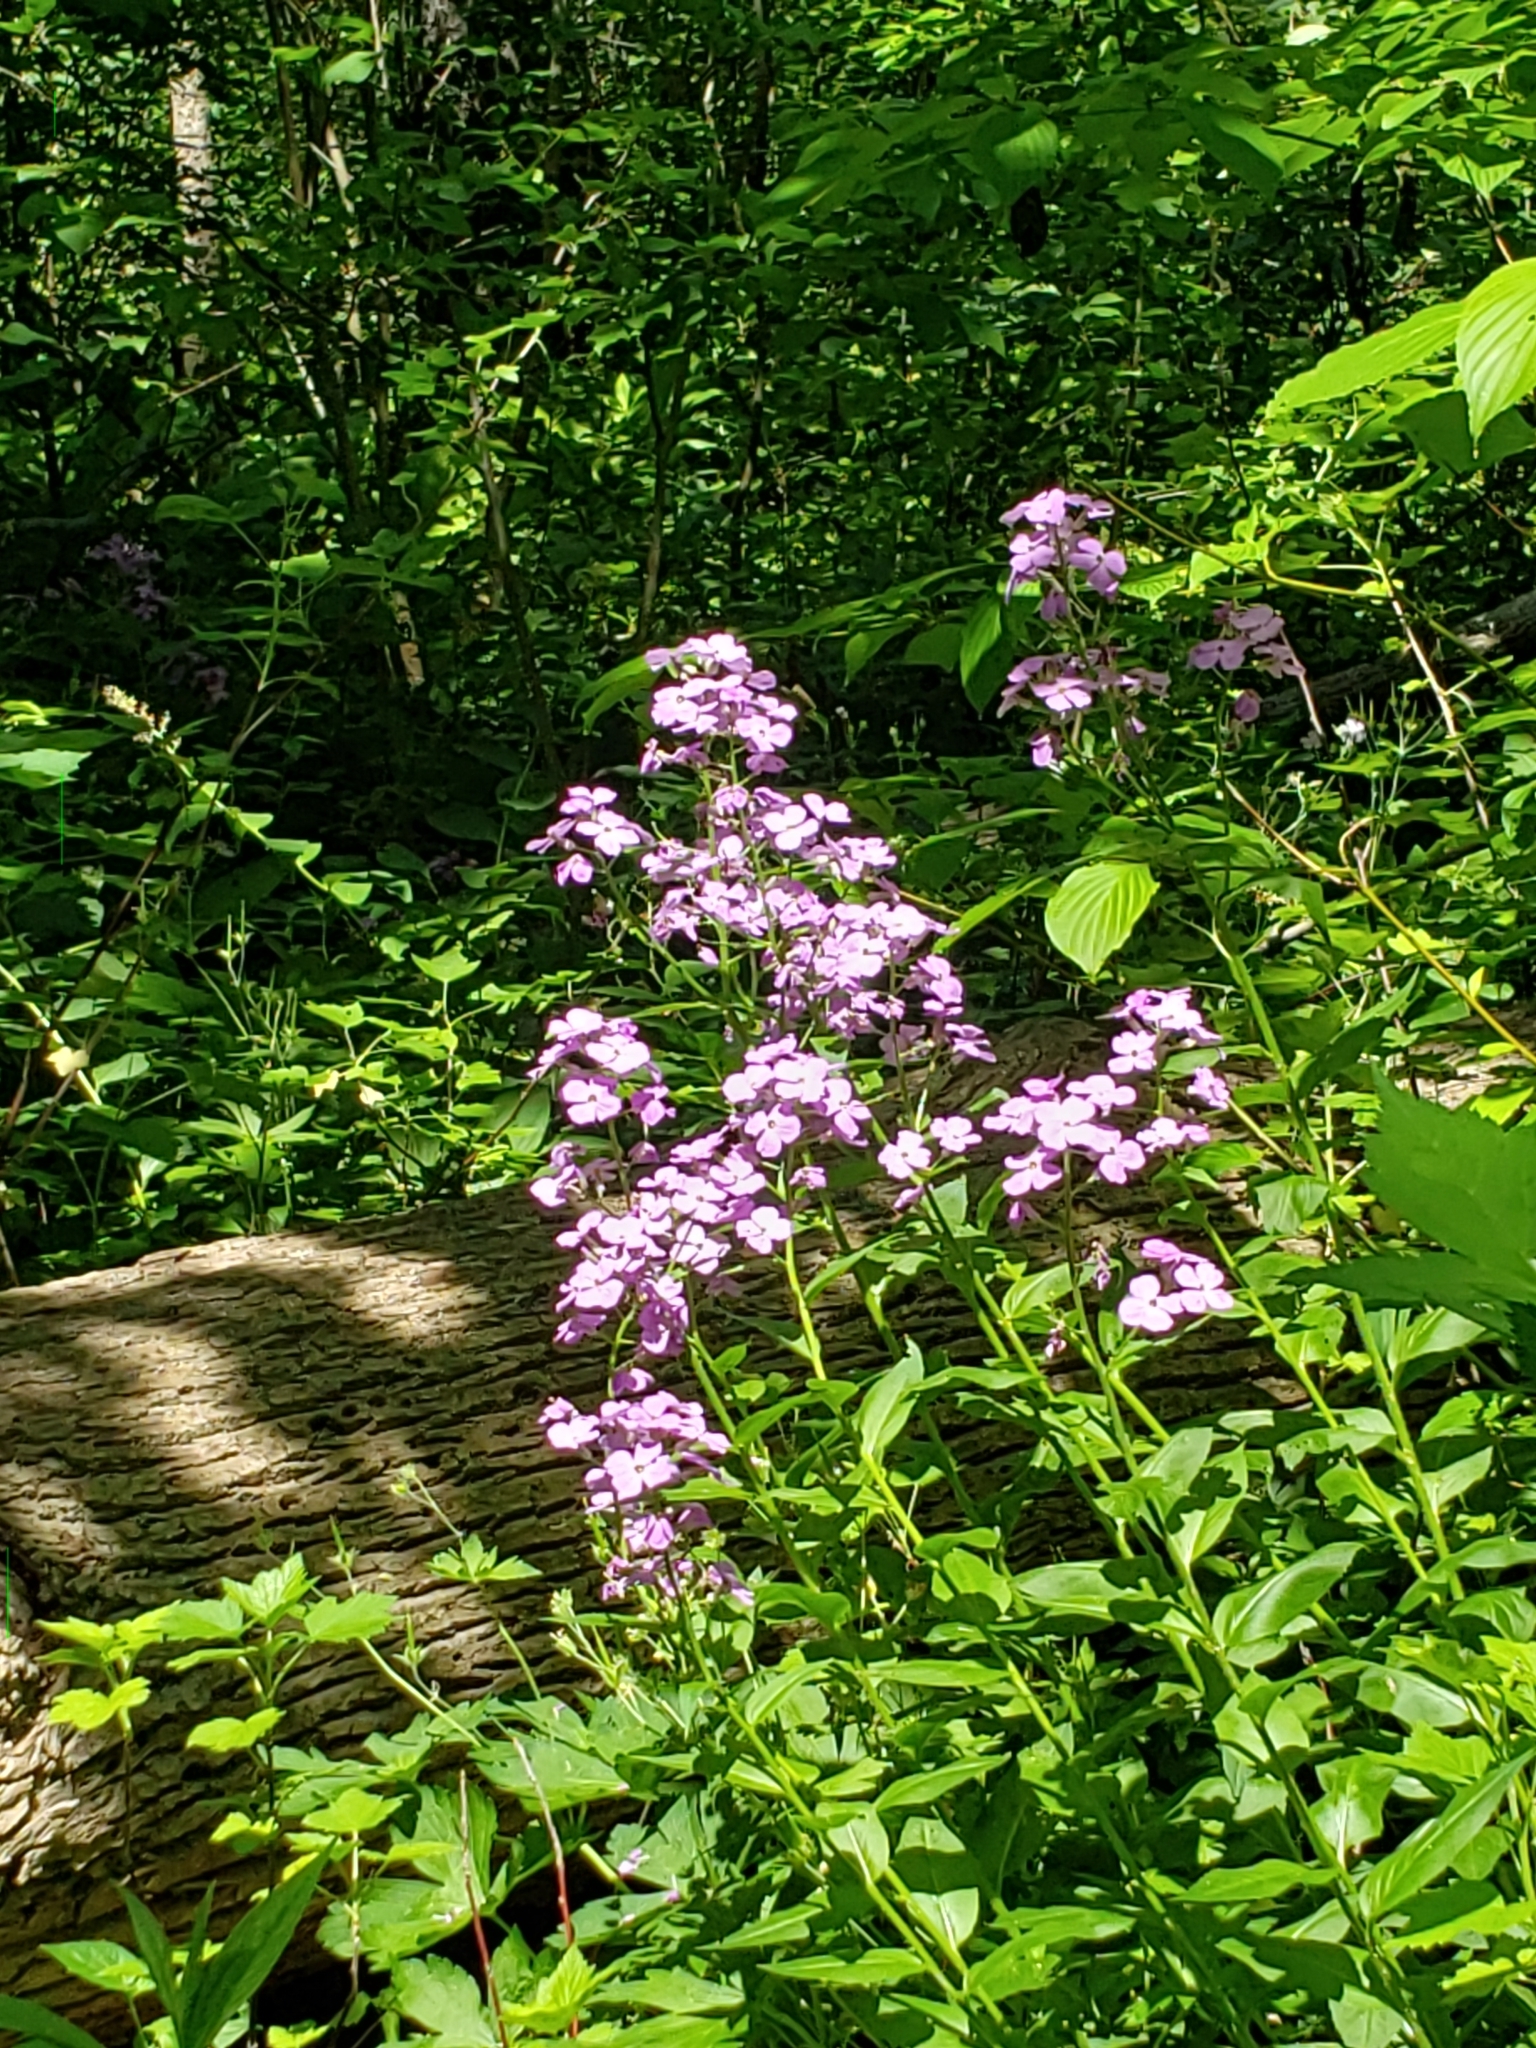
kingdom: Plantae
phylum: Tracheophyta
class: Magnoliopsida
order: Brassicales
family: Brassicaceae
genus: Hesperis
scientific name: Hesperis matronalis
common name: Dame's-violet
